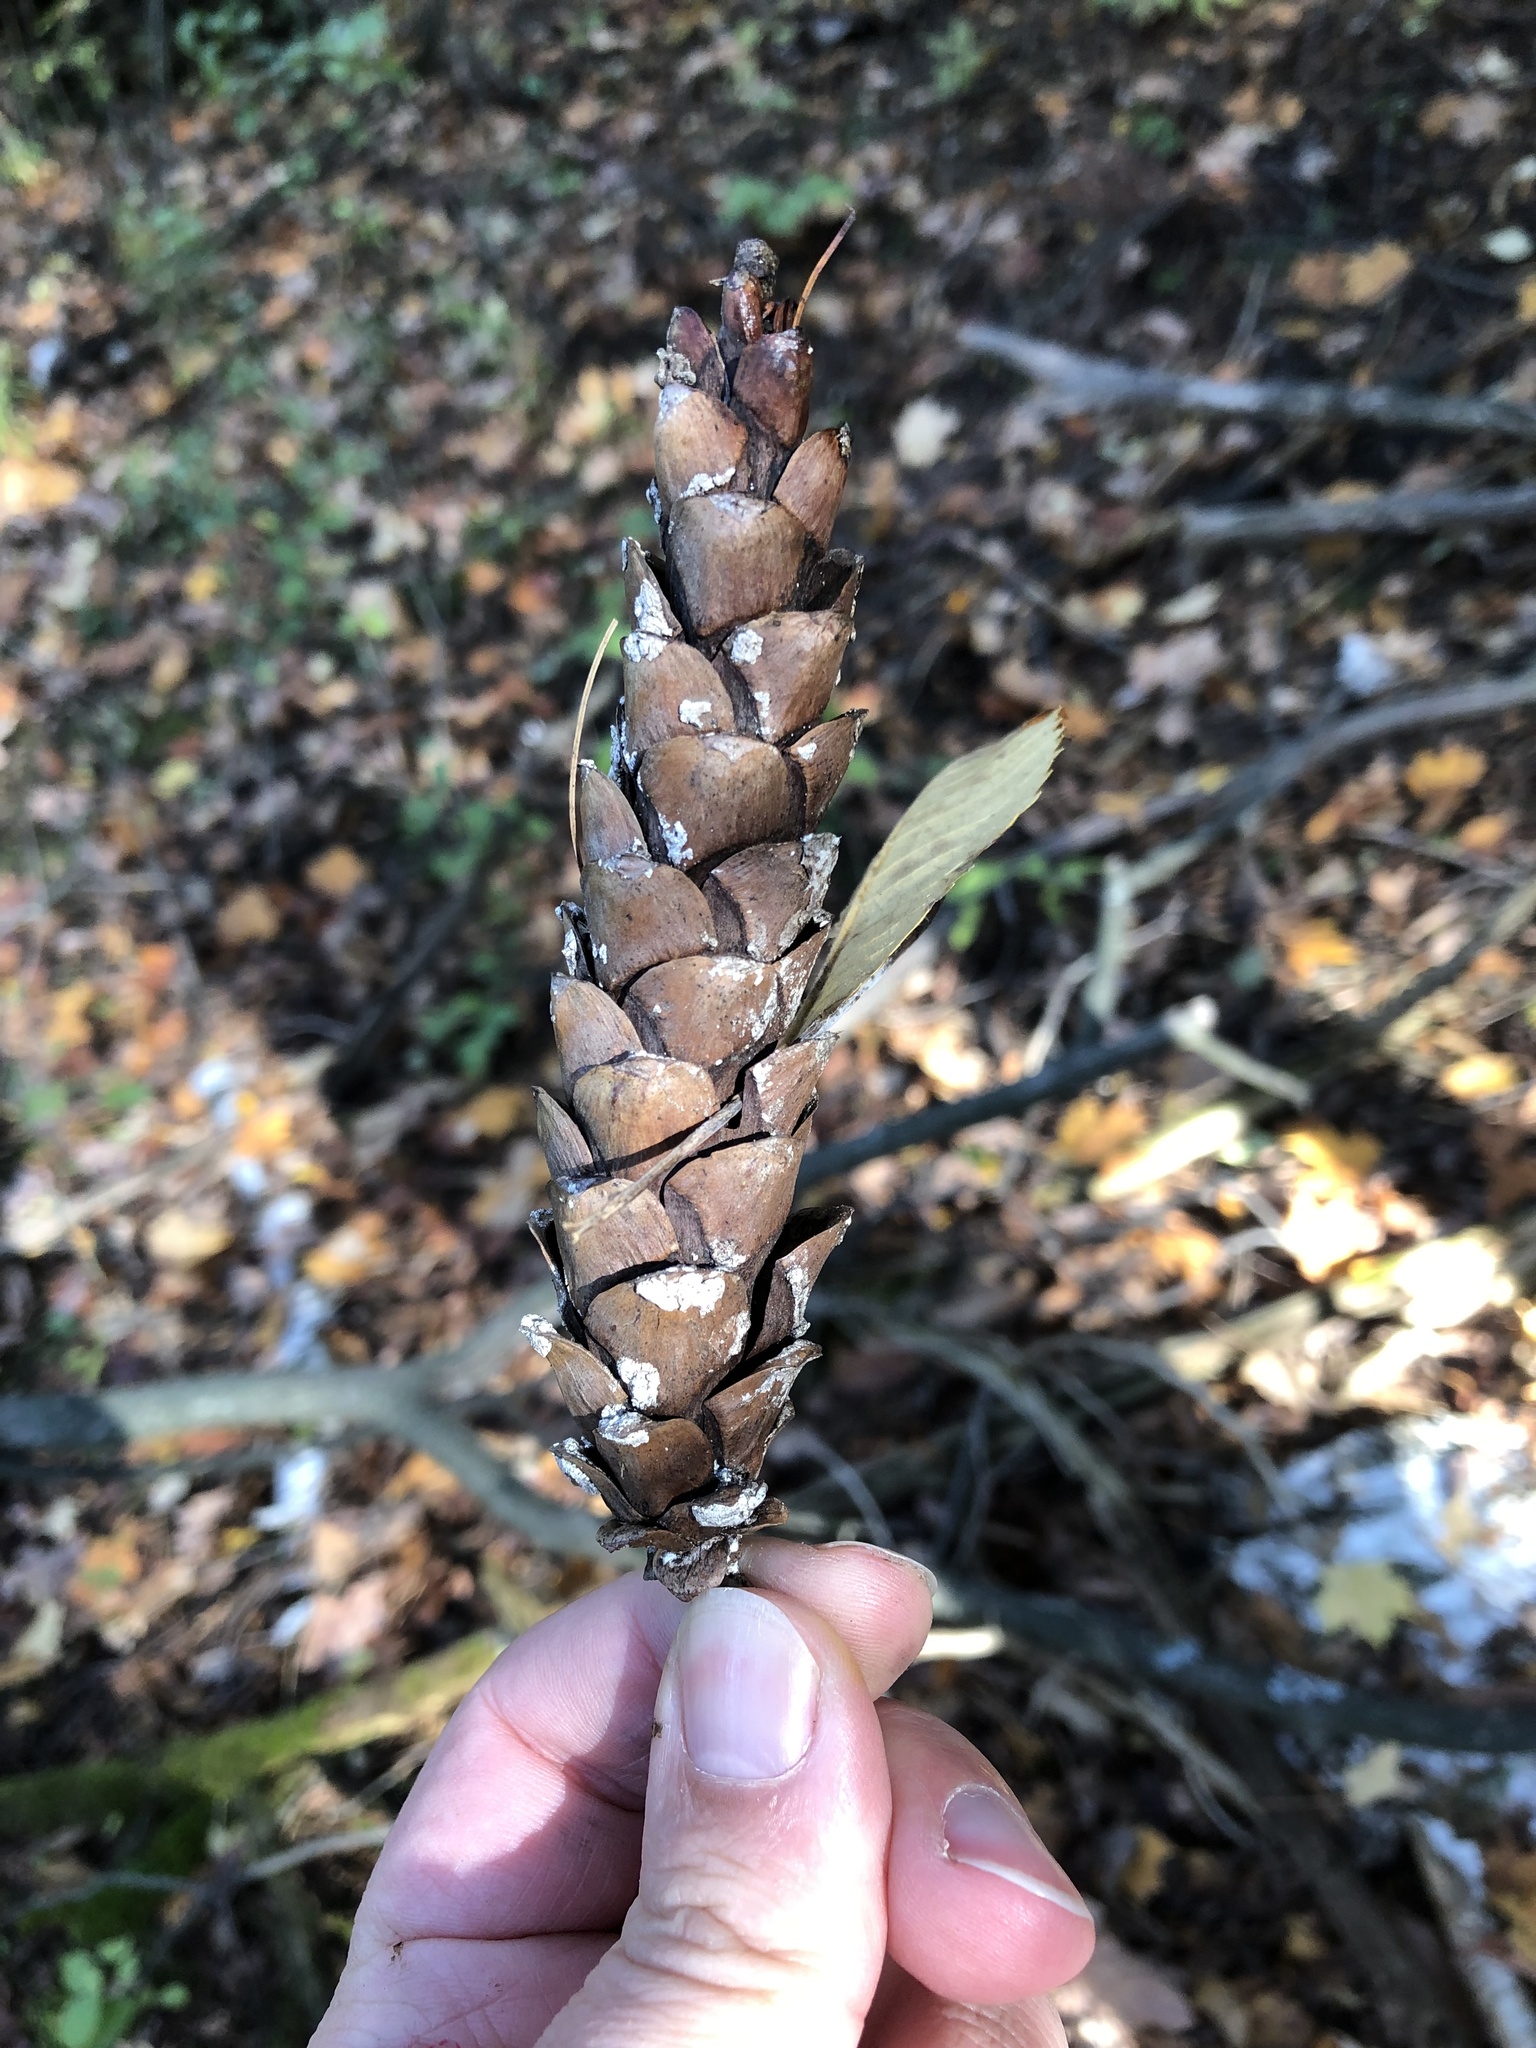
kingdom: Plantae
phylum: Tracheophyta
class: Pinopsida
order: Pinales
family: Pinaceae
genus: Pinus
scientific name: Pinus strobus
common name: Weymouth pine
